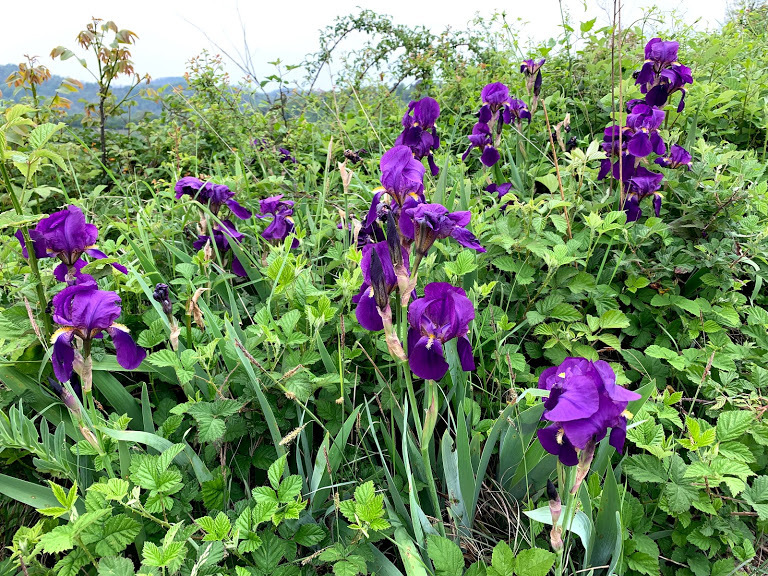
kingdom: Plantae
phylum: Tracheophyta
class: Liliopsida
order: Asparagales
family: Iridaceae
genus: Iris
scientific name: Iris germanica
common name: German iris
